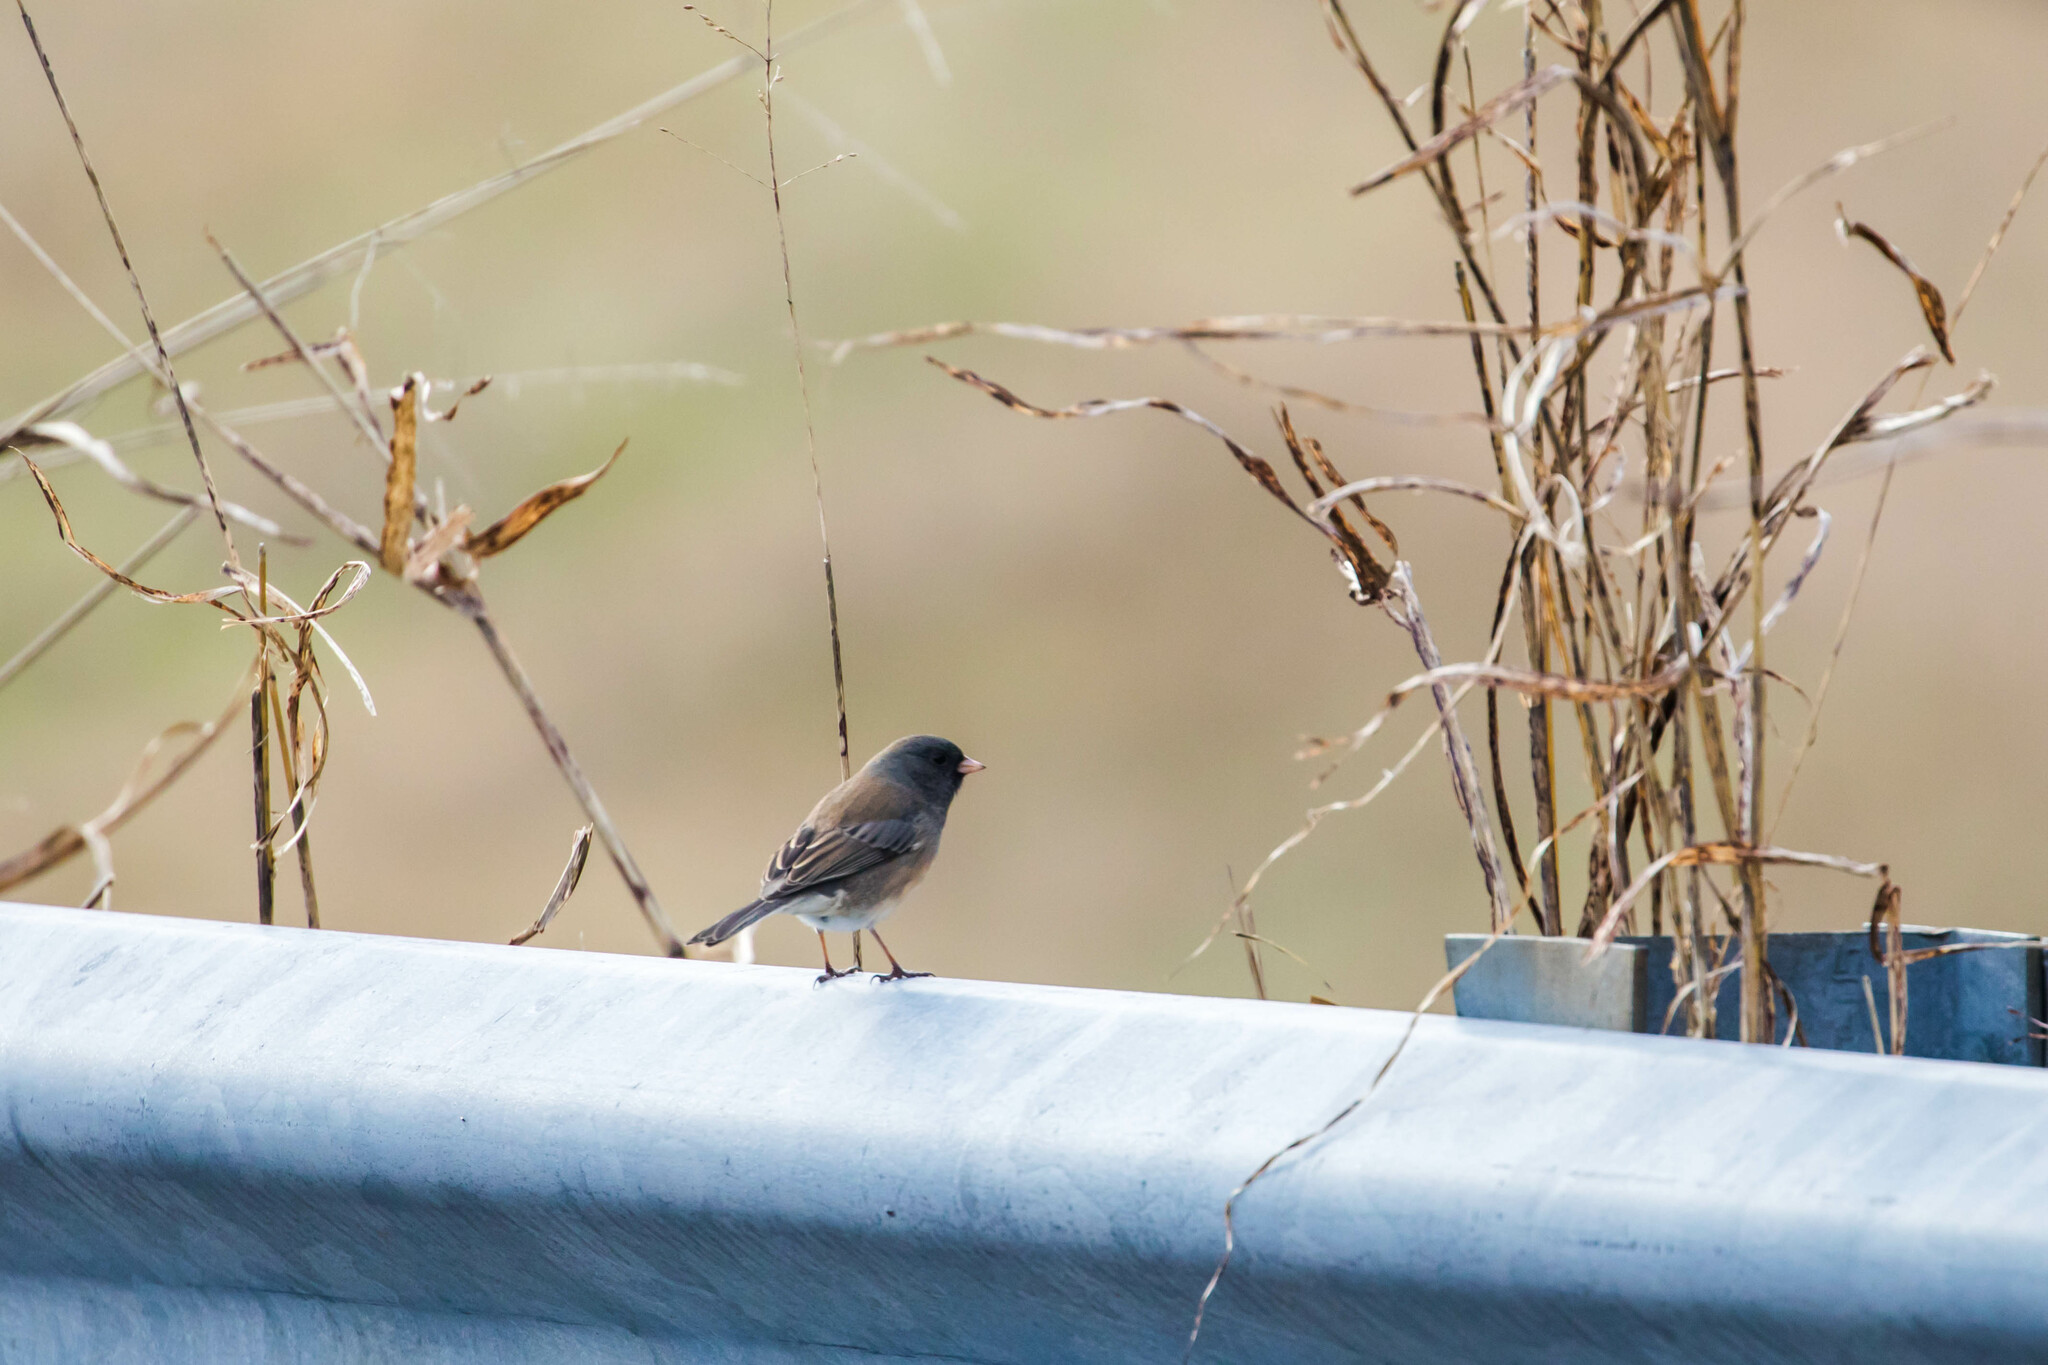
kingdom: Animalia
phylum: Chordata
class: Aves
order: Passeriformes
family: Passerellidae
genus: Junco
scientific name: Junco hyemalis
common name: Dark-eyed junco
